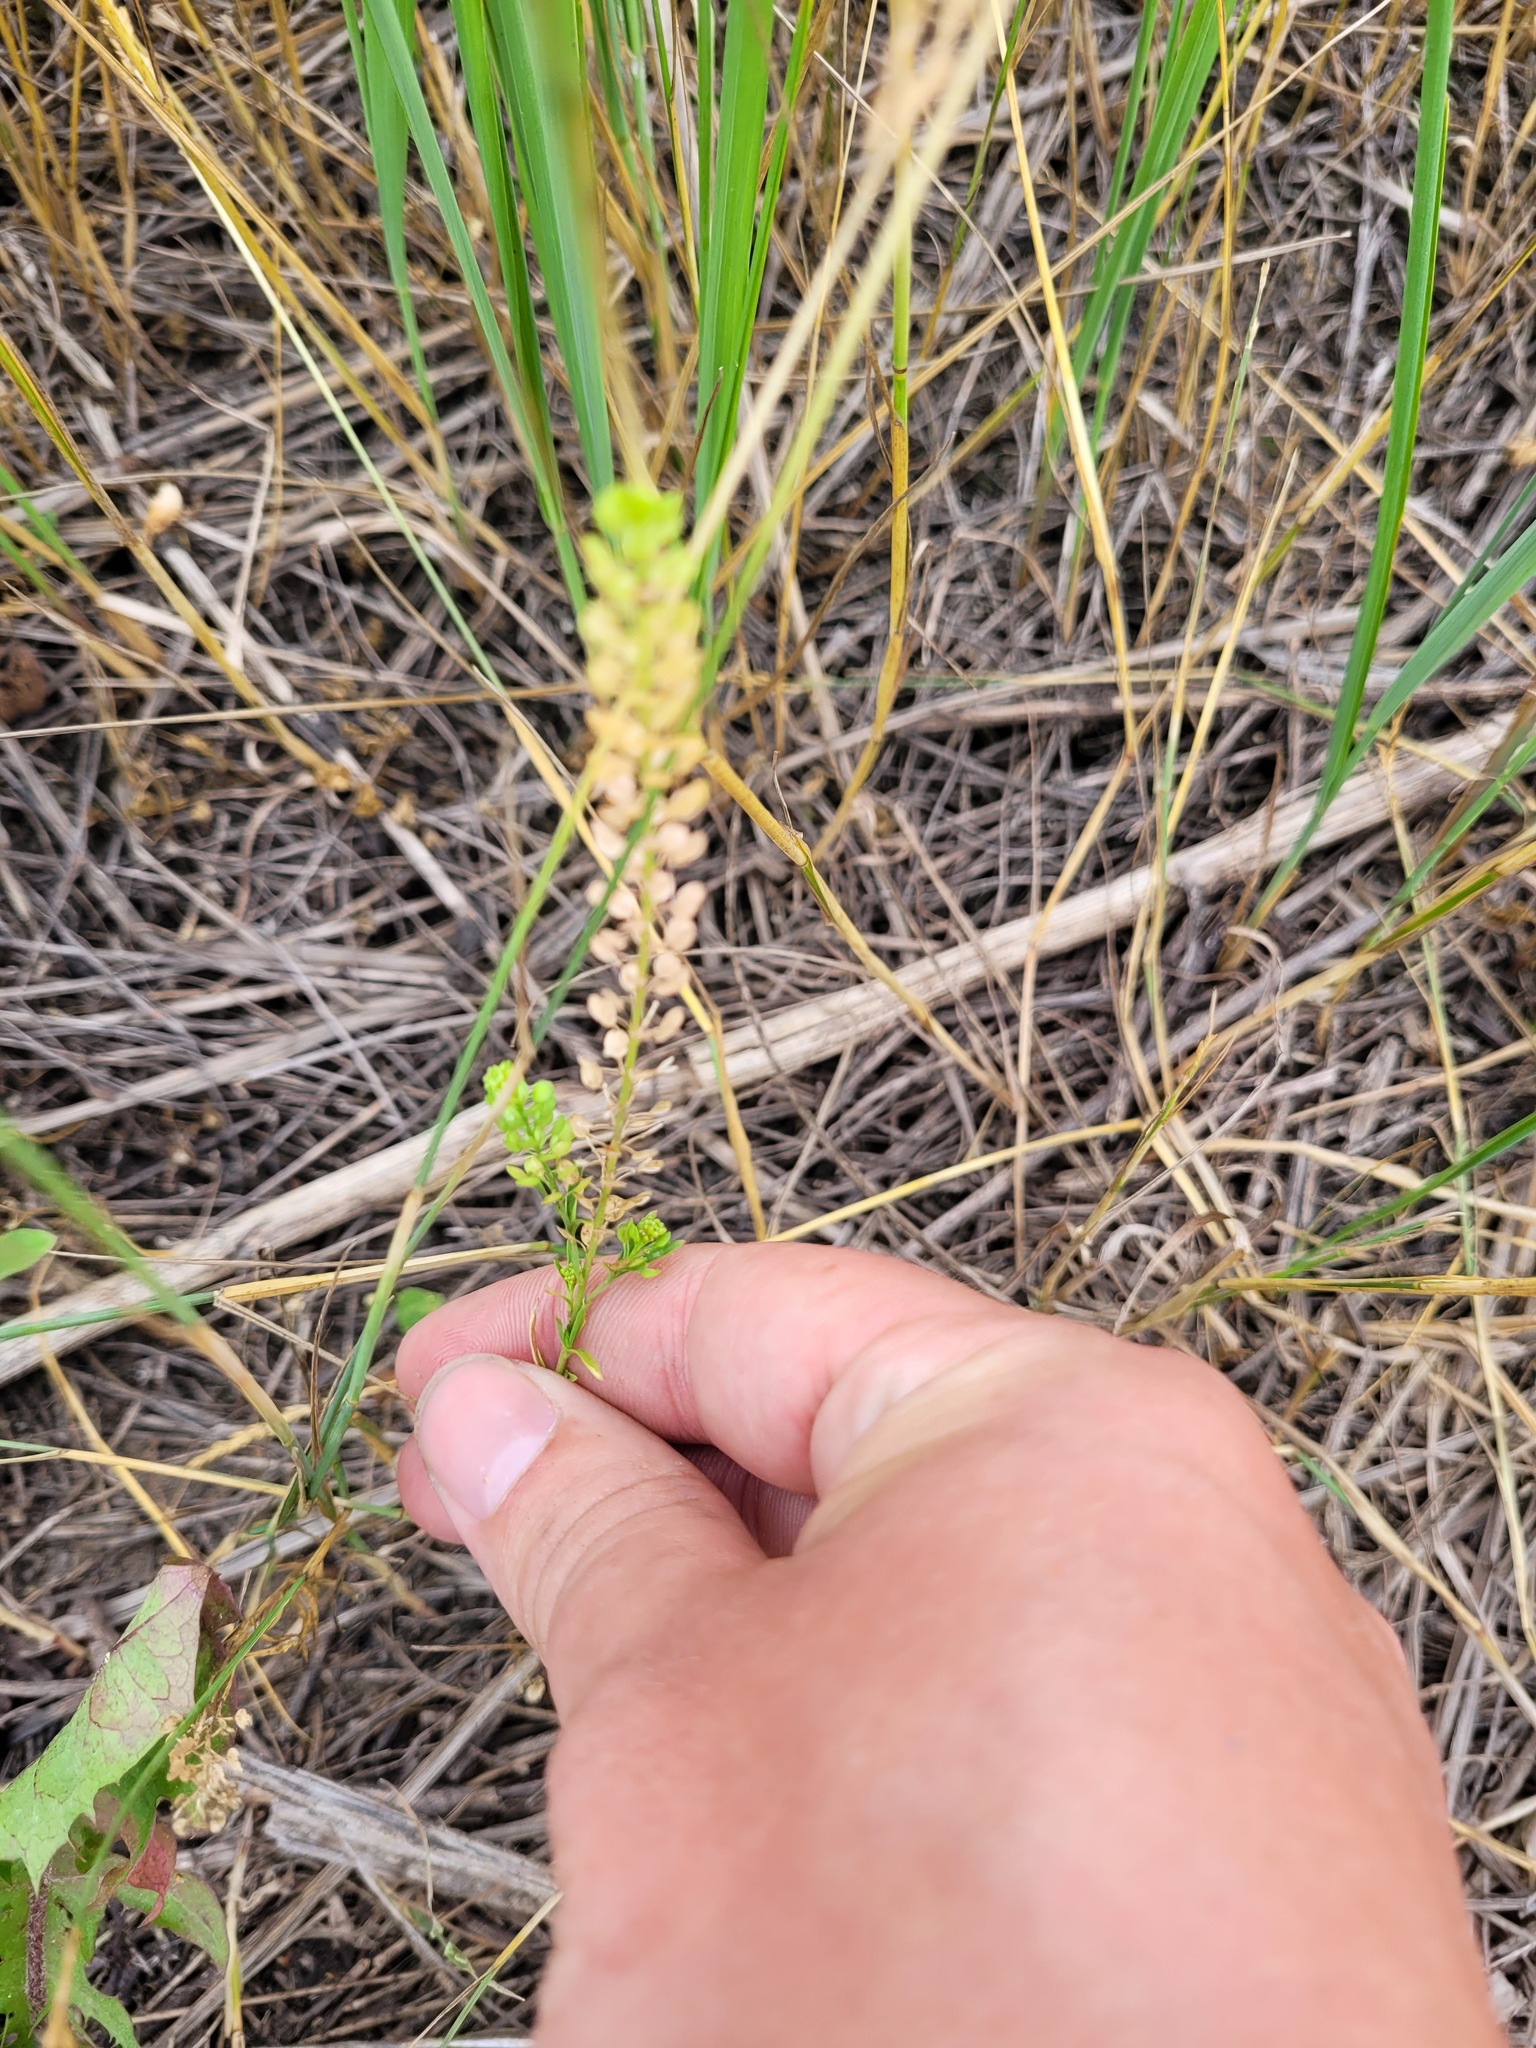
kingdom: Plantae
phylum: Tracheophyta
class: Magnoliopsida
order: Brassicales
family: Brassicaceae
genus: Lepidium
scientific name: Lepidium densiflorum
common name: Miner's pepperwort
